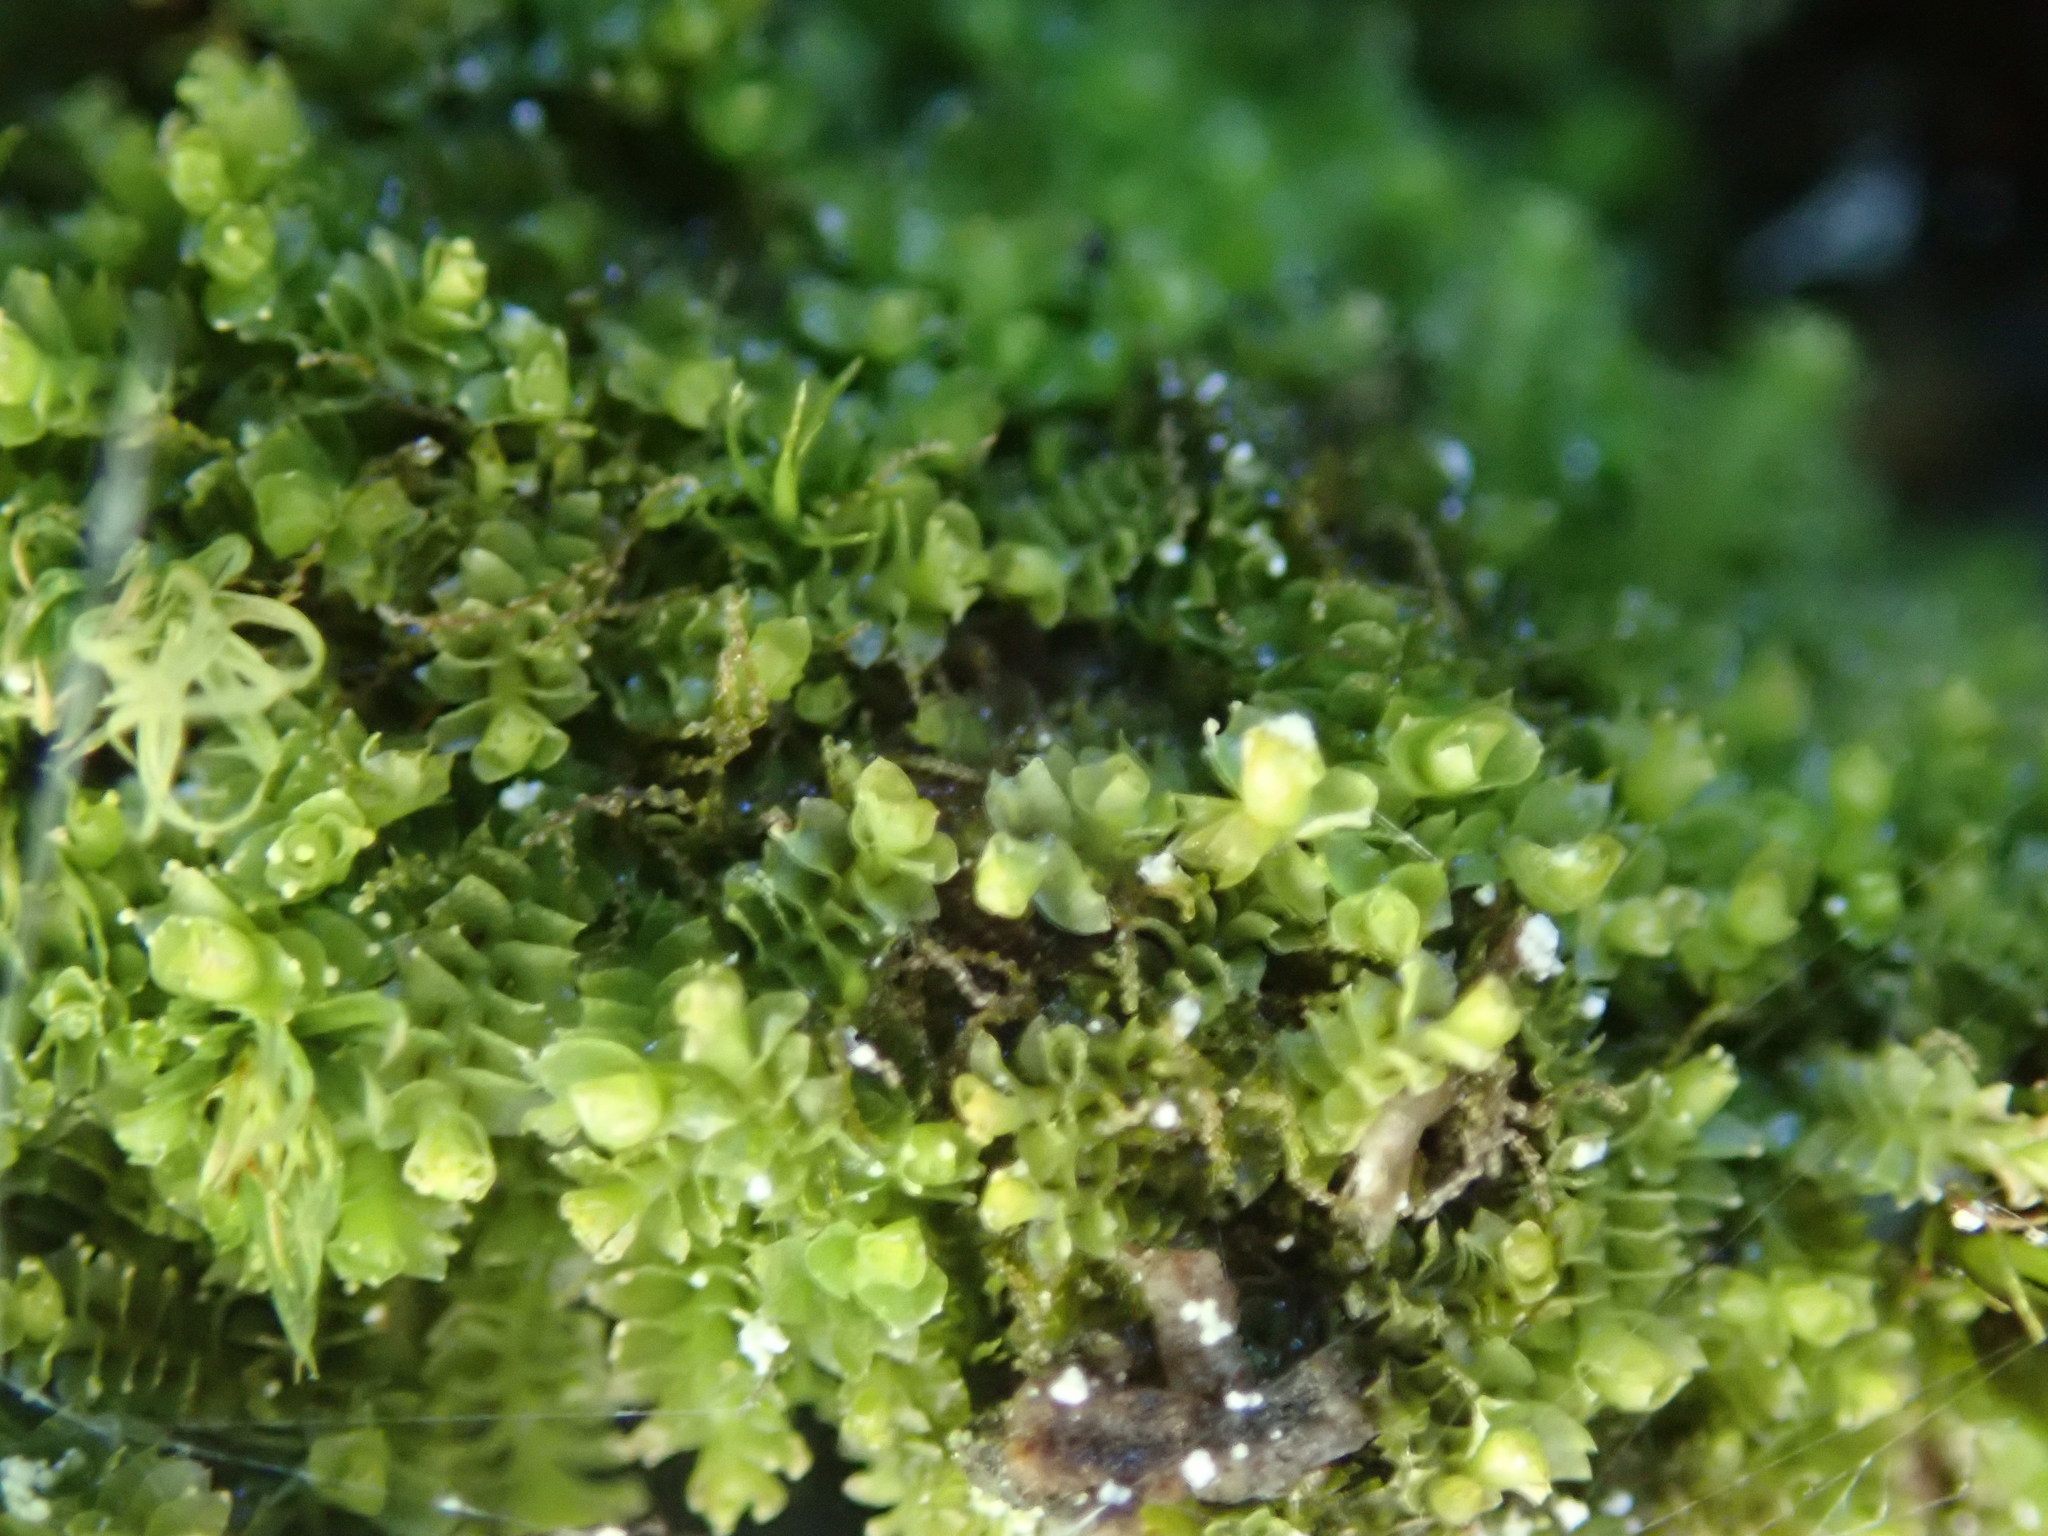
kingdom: Plantae
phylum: Marchantiophyta
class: Jungermanniopsida
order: Jungermanniales
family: Lophoziaceae
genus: Lophozia
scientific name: Lophozia ventricosa
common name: Tumid notchwort
